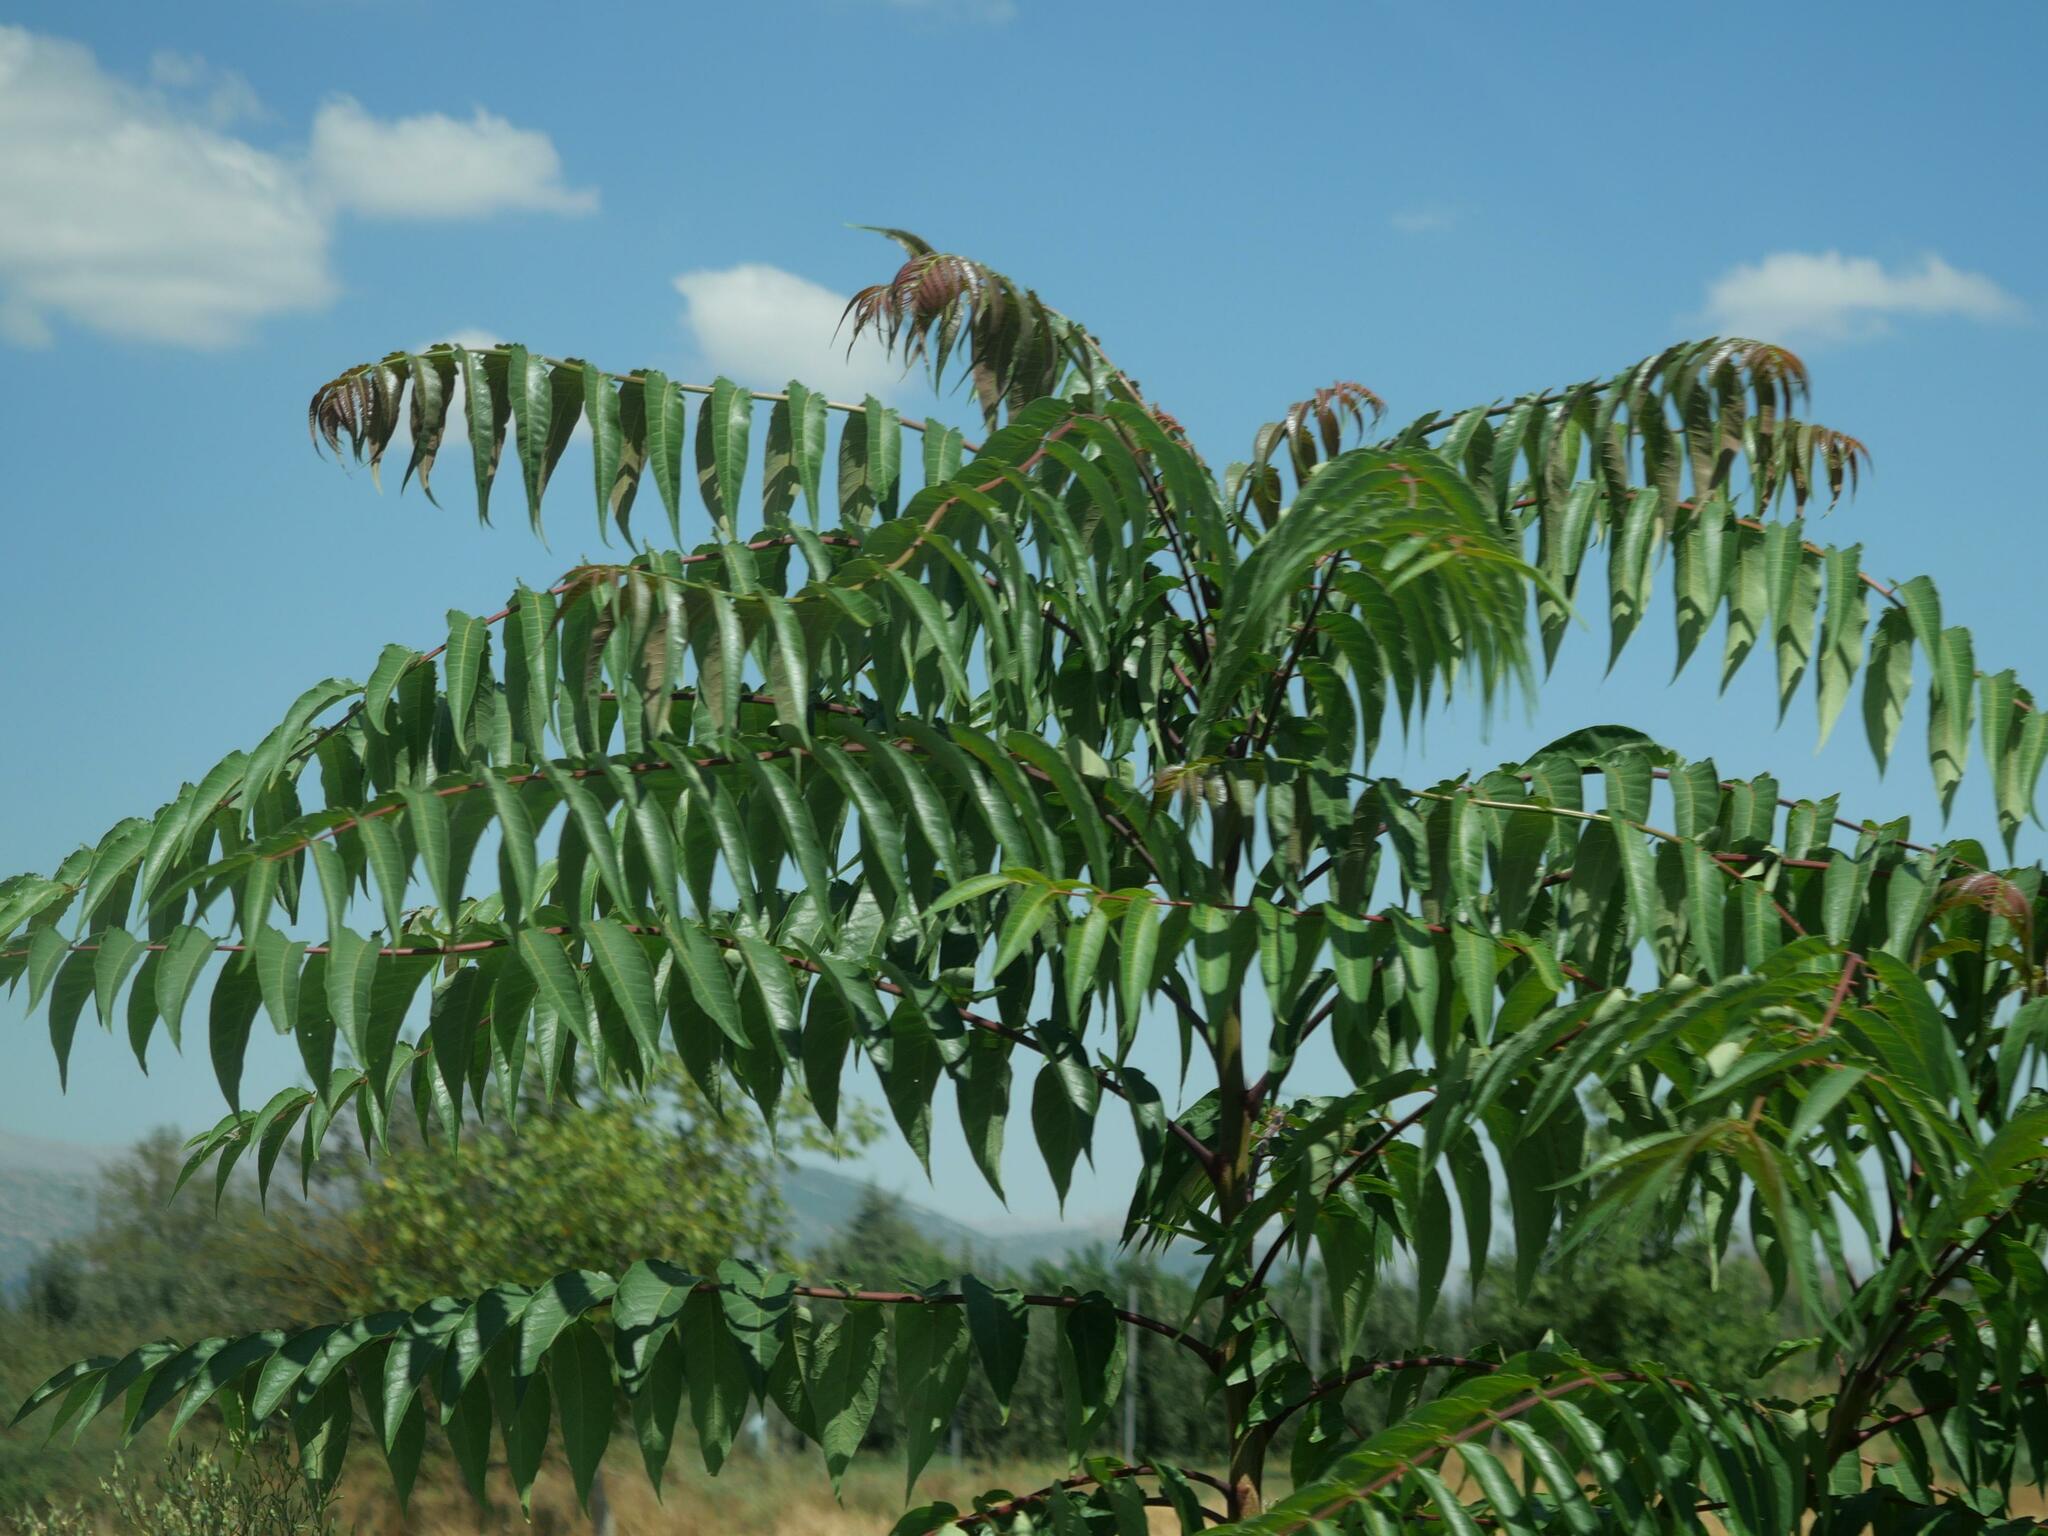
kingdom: Plantae
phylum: Tracheophyta
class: Magnoliopsida
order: Sapindales
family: Simaroubaceae
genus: Ailanthus
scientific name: Ailanthus altissima
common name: Tree-of-heaven
